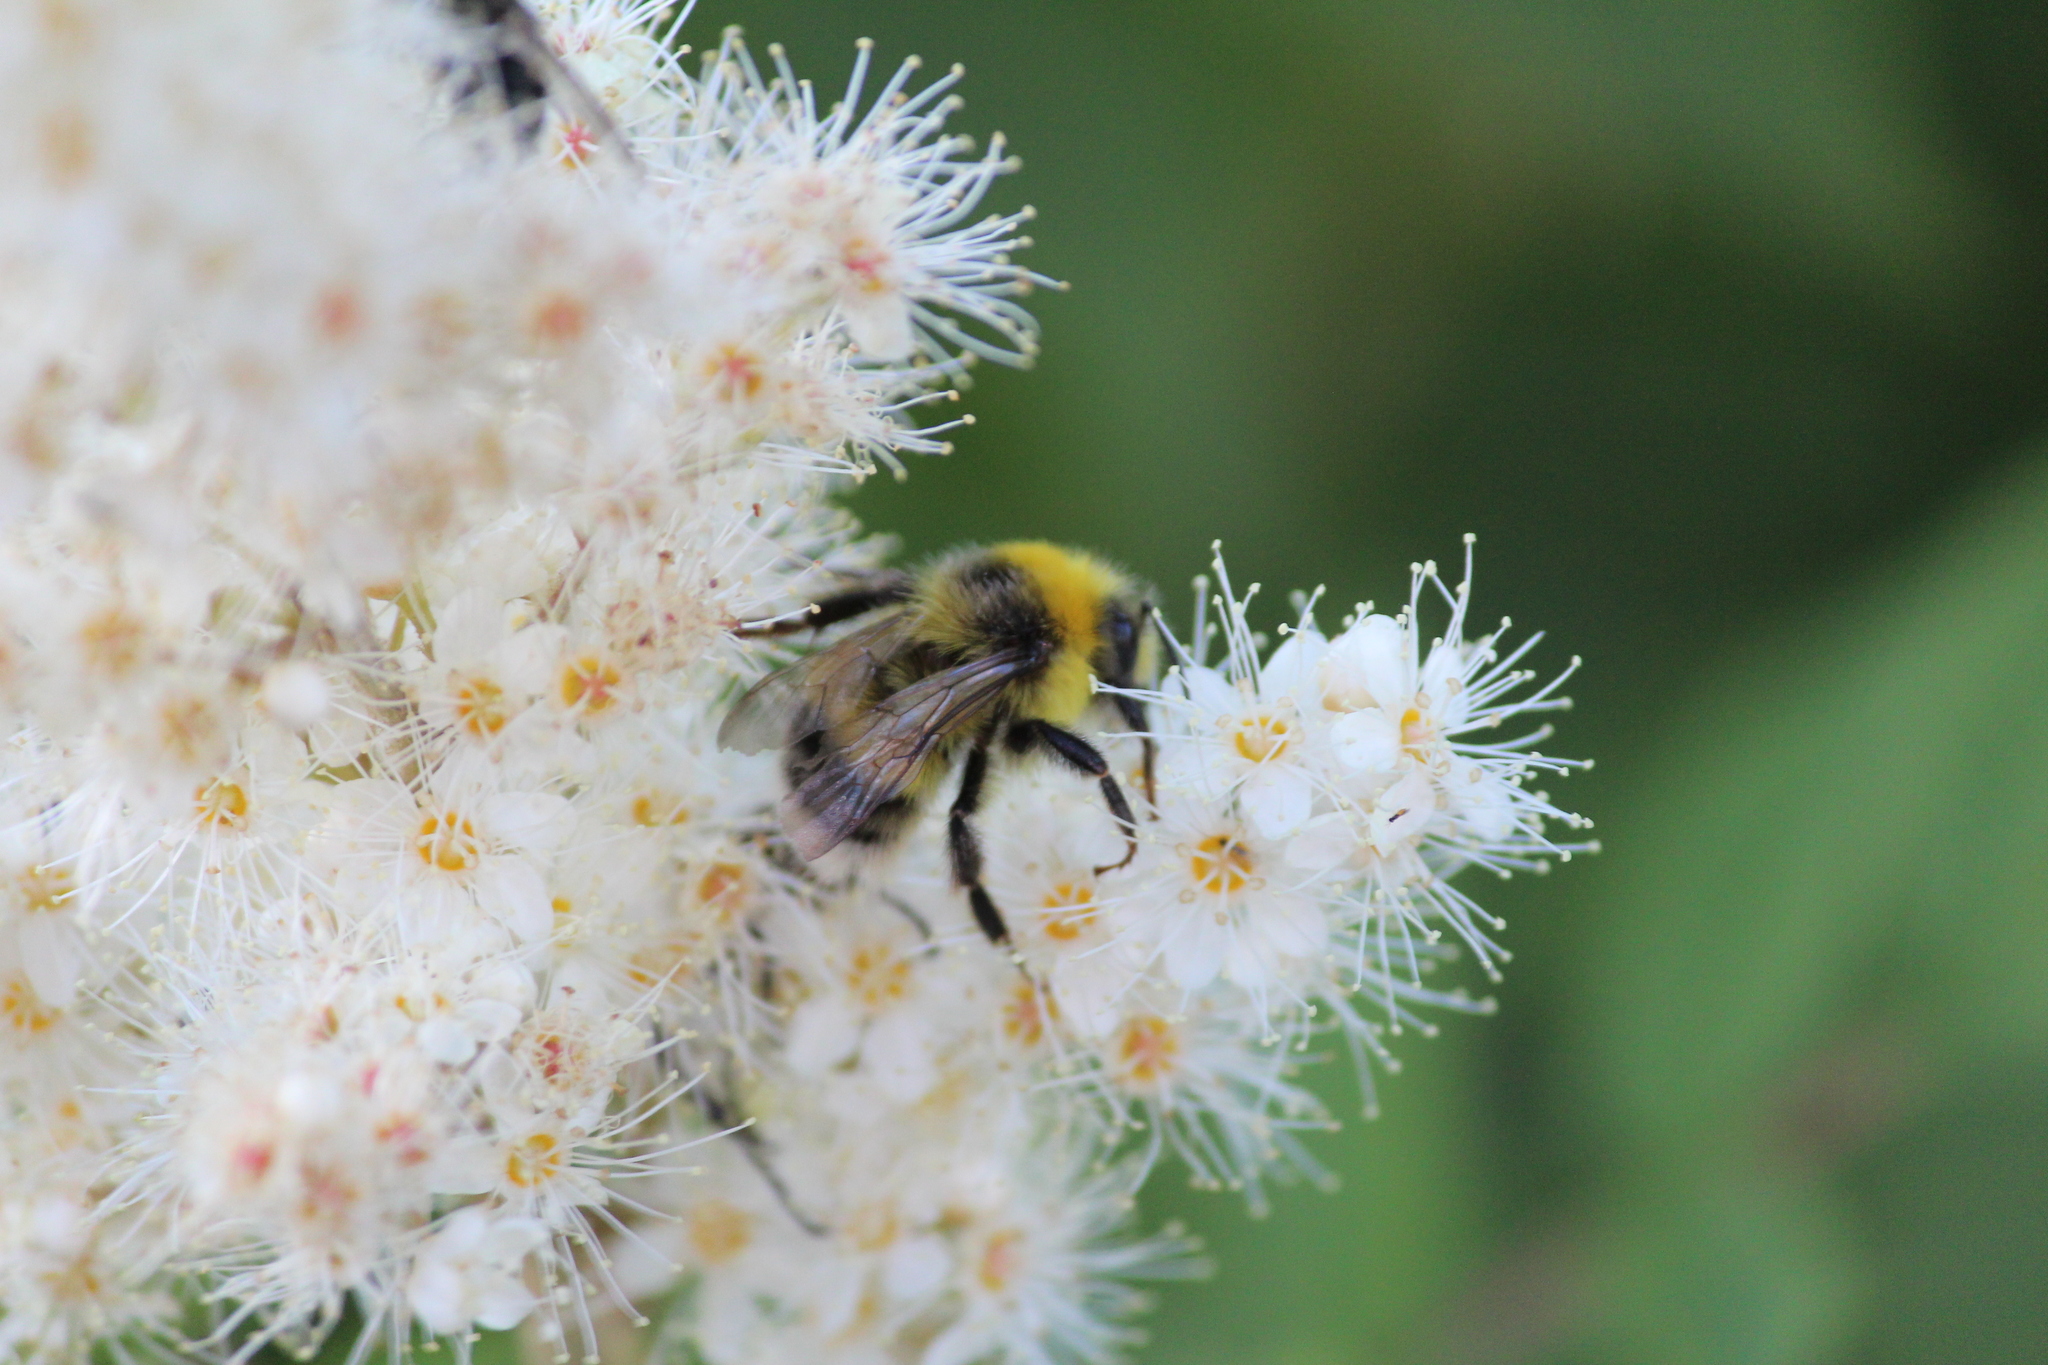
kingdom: Animalia
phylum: Arthropoda
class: Insecta
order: Hymenoptera
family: Apidae
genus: Bombus
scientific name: Bombus lucorum
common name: White-tailed bumblebee
